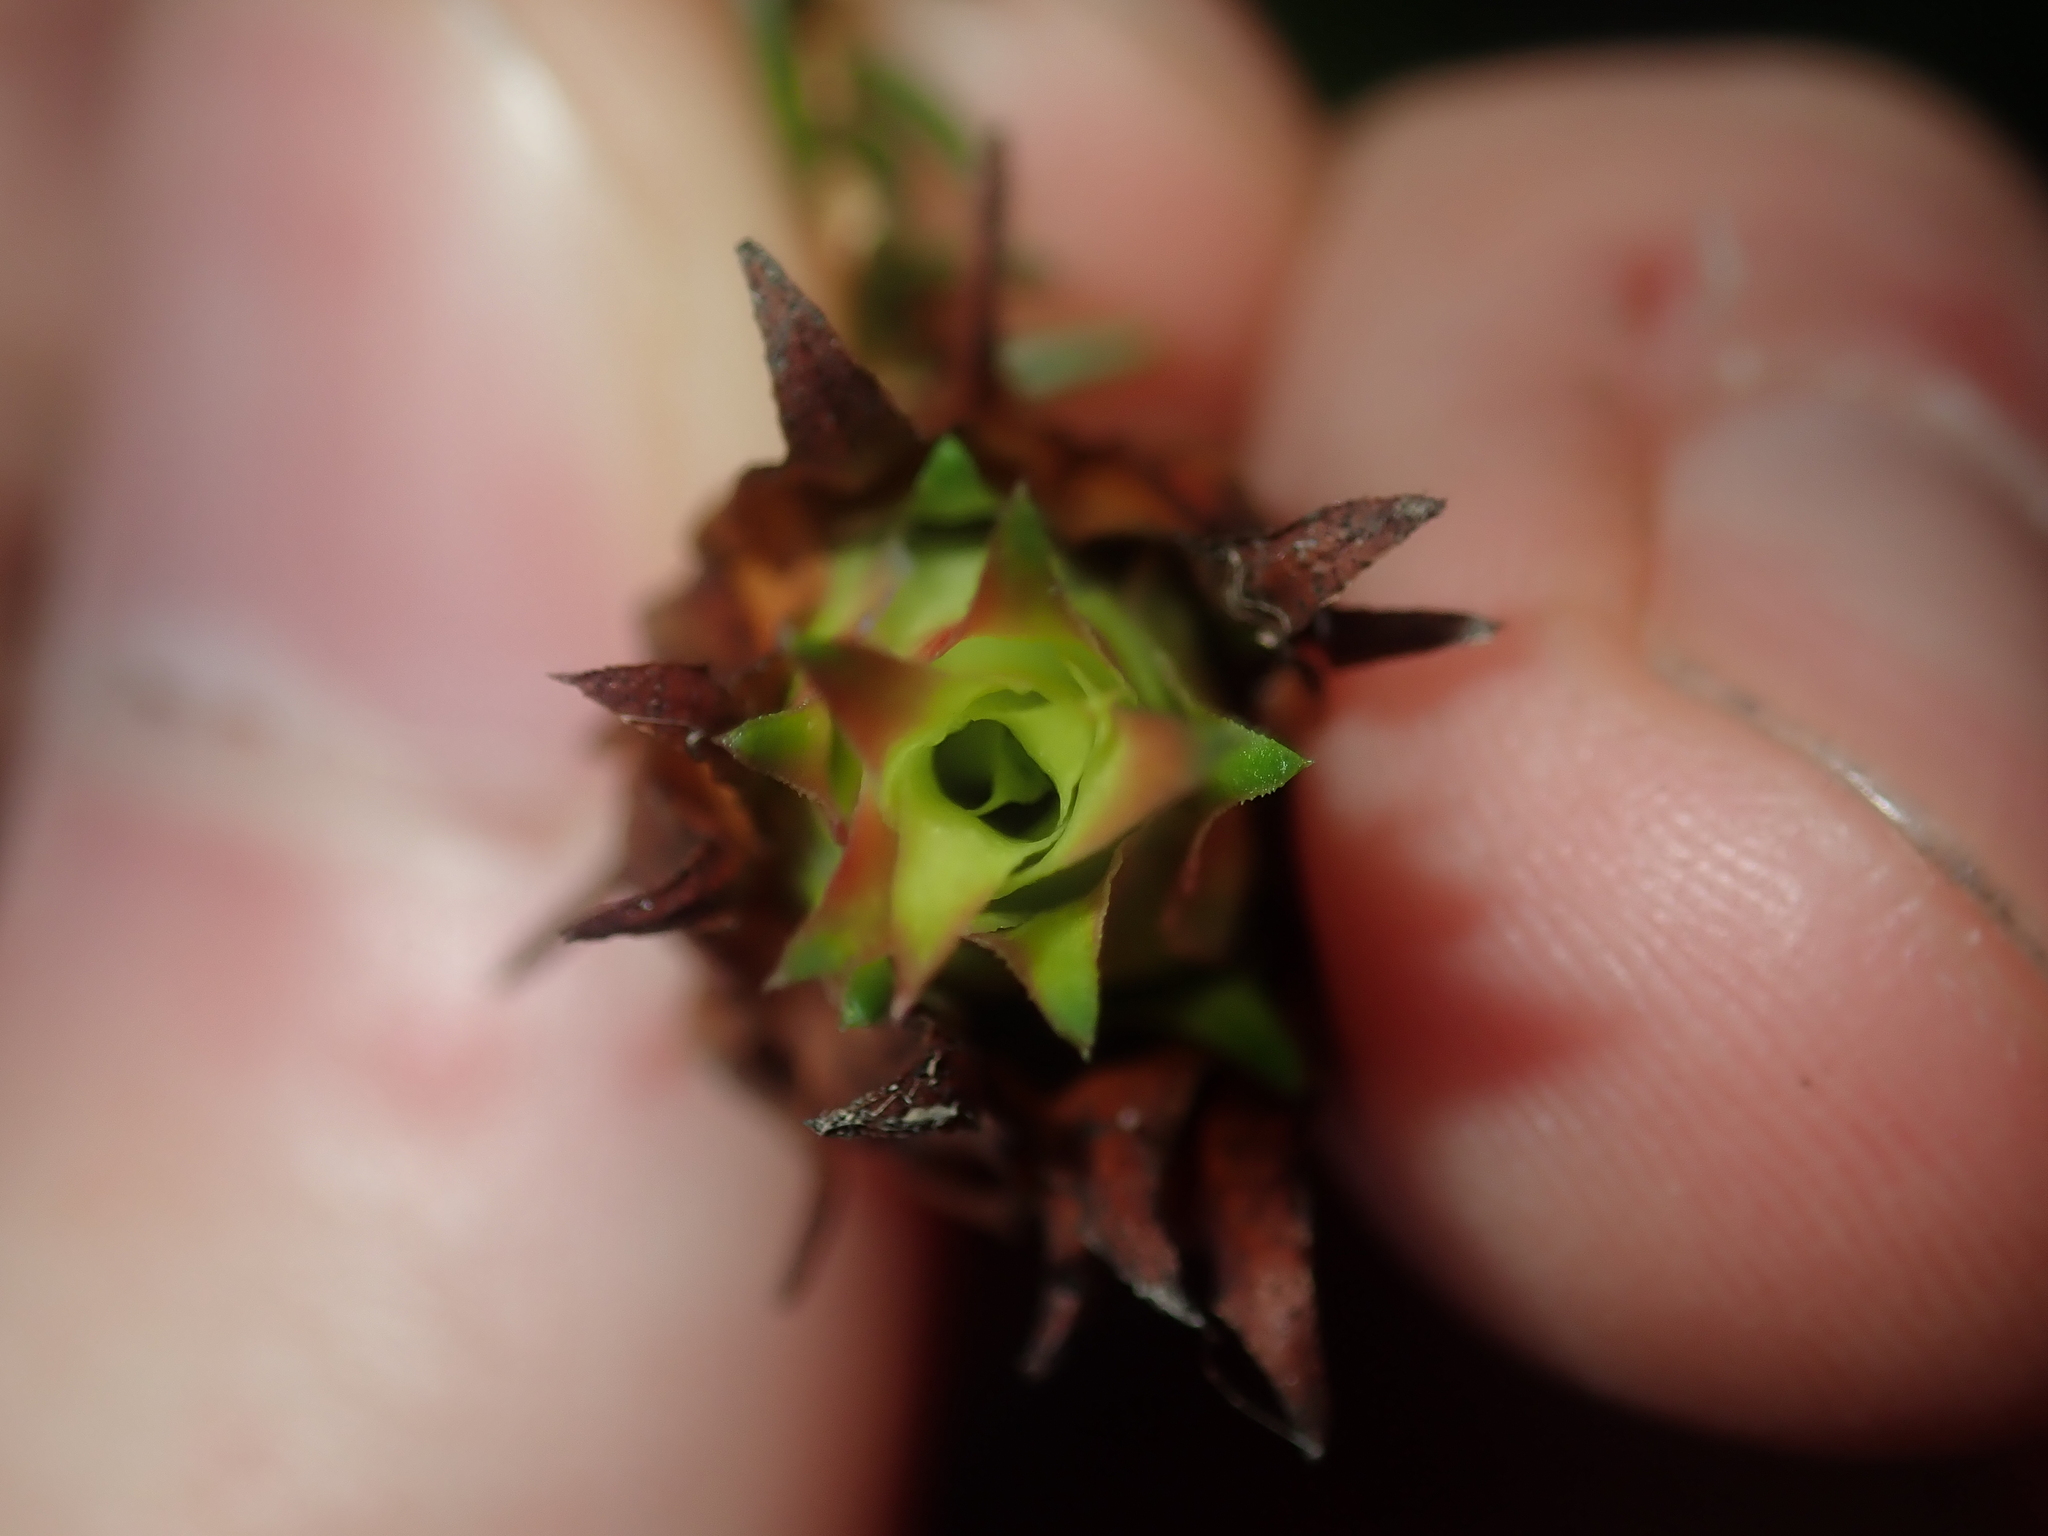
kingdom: Plantae
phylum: Tracheophyta
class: Magnoliopsida
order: Myrtales
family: Myrtaceae
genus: Darwinia
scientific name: Darwinia helichrysoides
